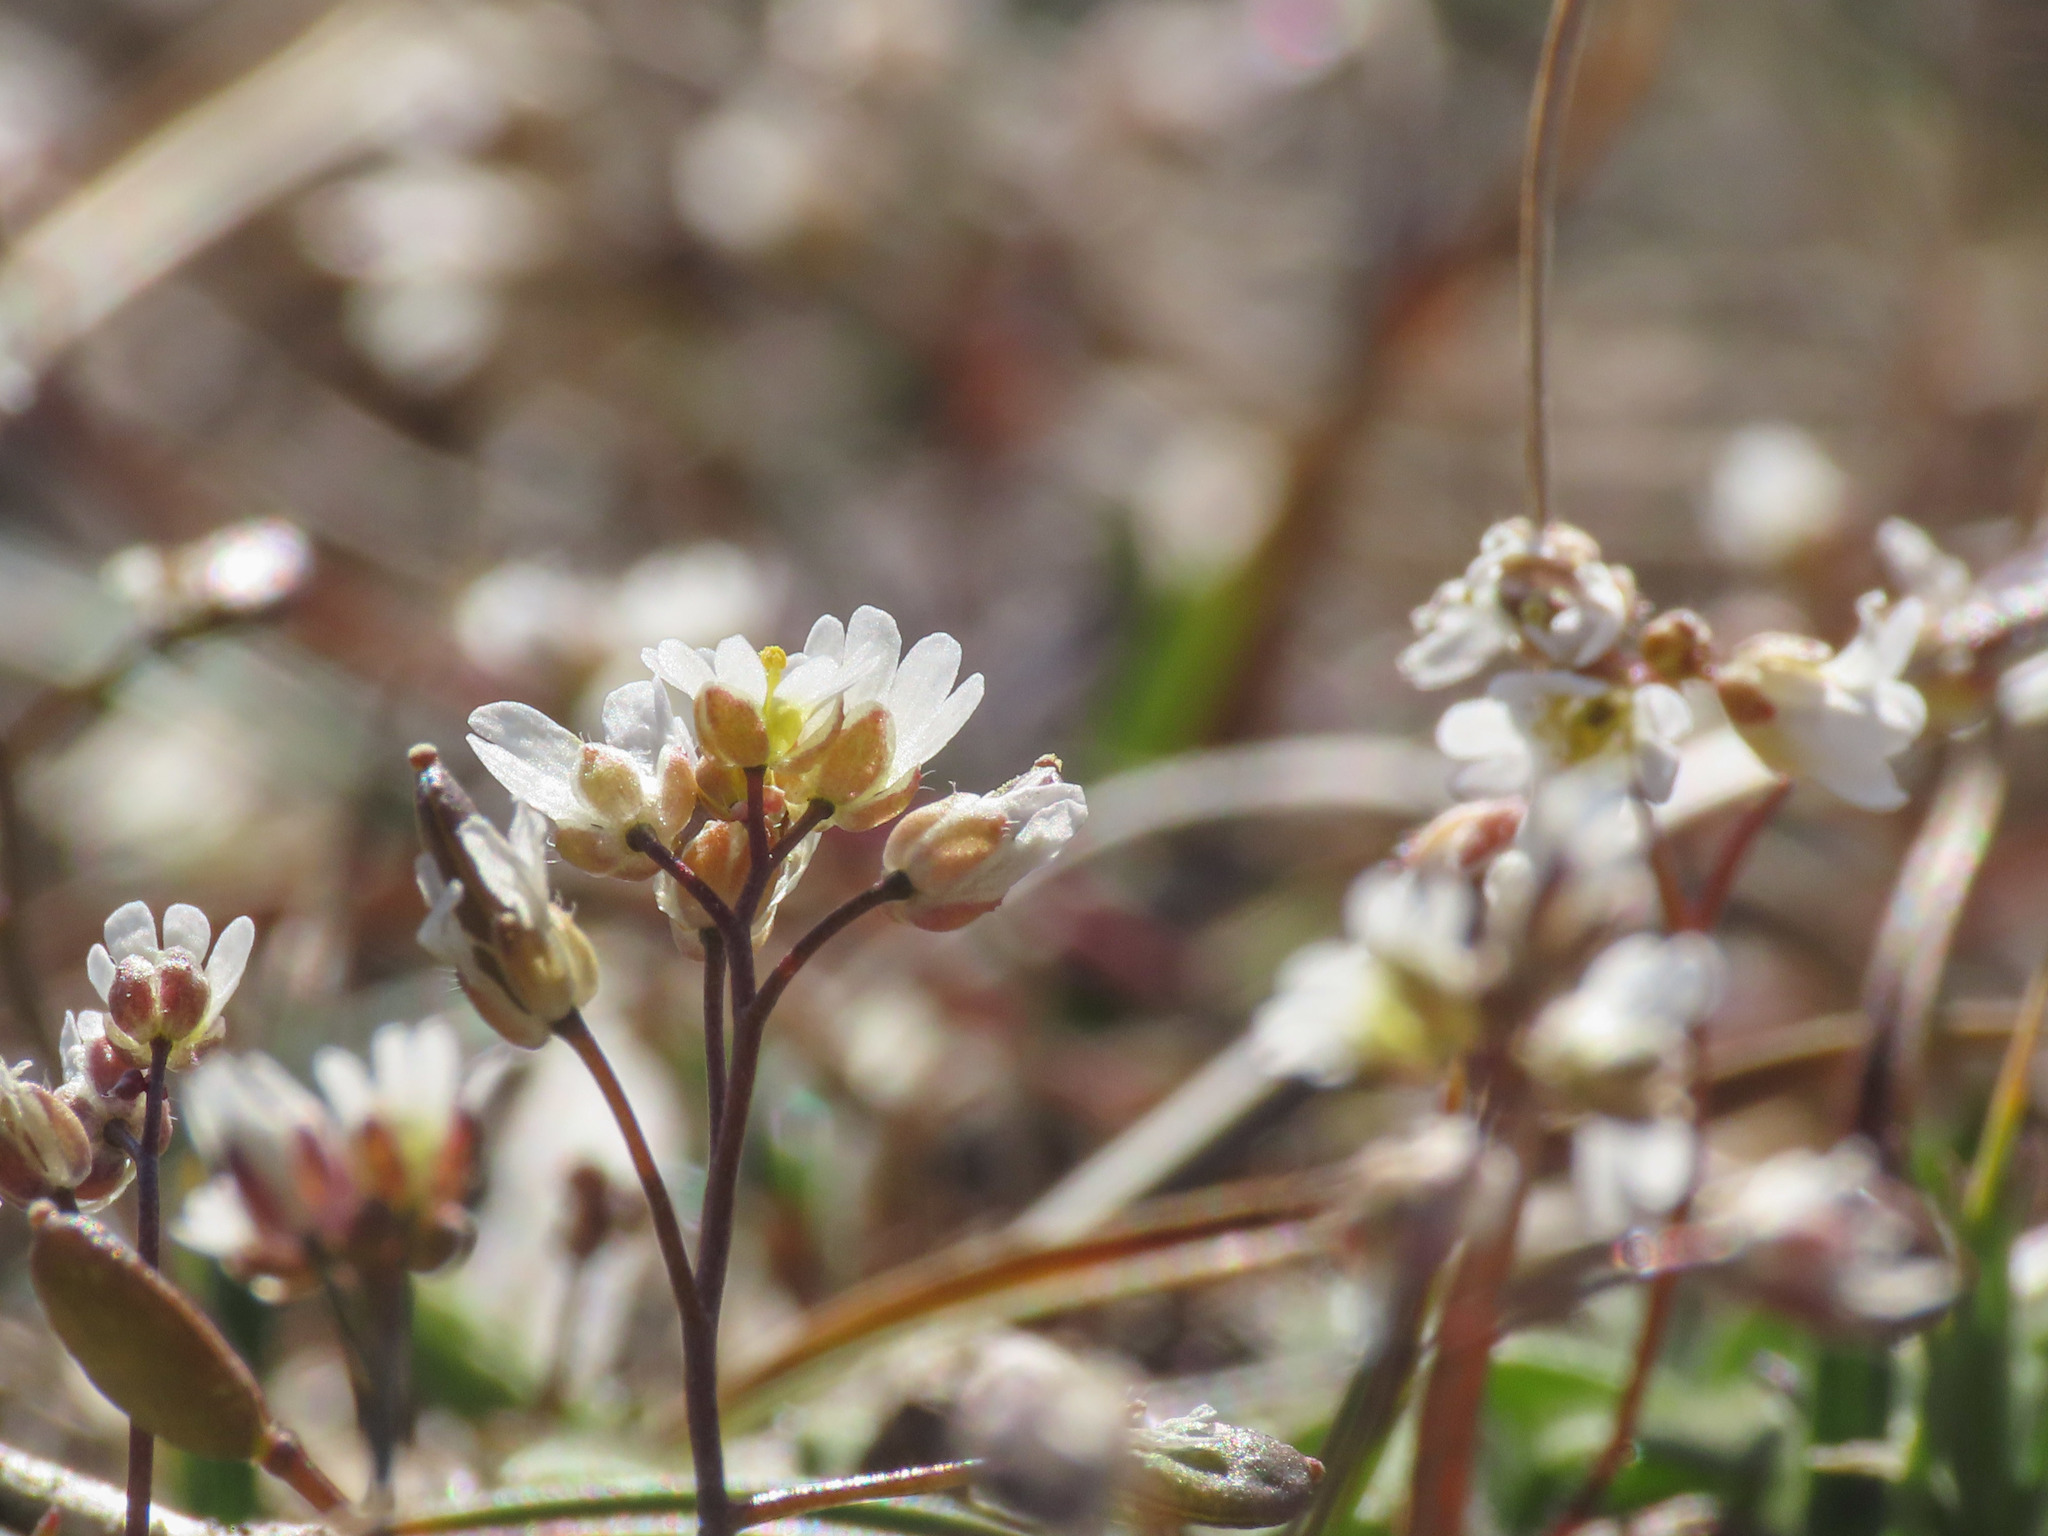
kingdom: Plantae
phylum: Tracheophyta
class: Magnoliopsida
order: Brassicales
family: Brassicaceae
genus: Draba
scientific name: Draba verna
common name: Spring draba
